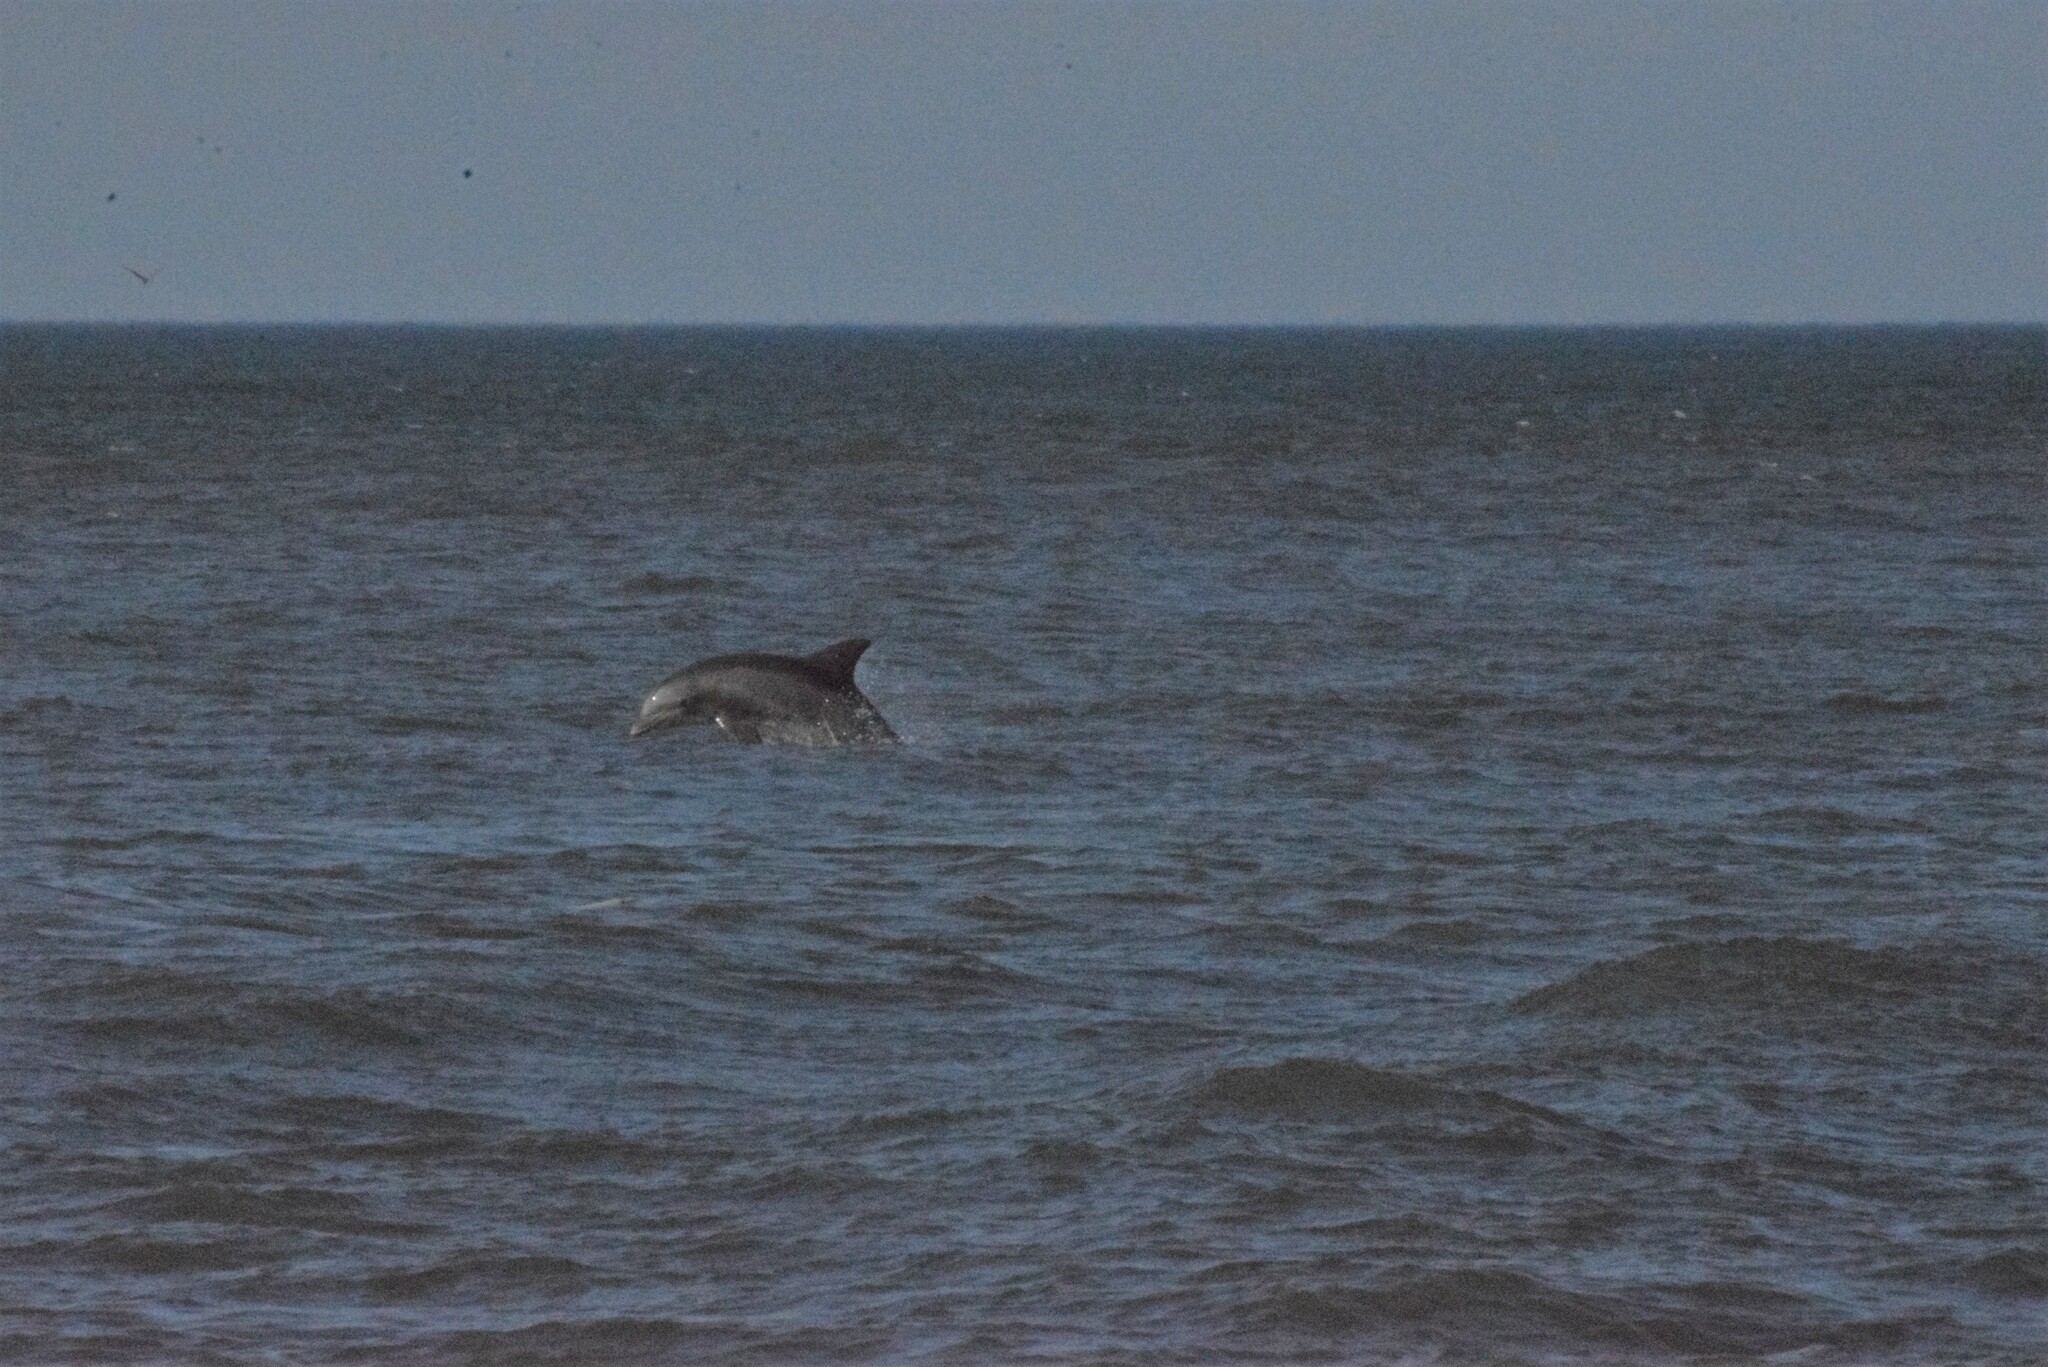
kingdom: Animalia
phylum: Chordata
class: Mammalia
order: Cetacea
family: Delphinidae
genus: Tursiops
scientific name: Tursiops truncatus
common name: Bottlenose dolphin
